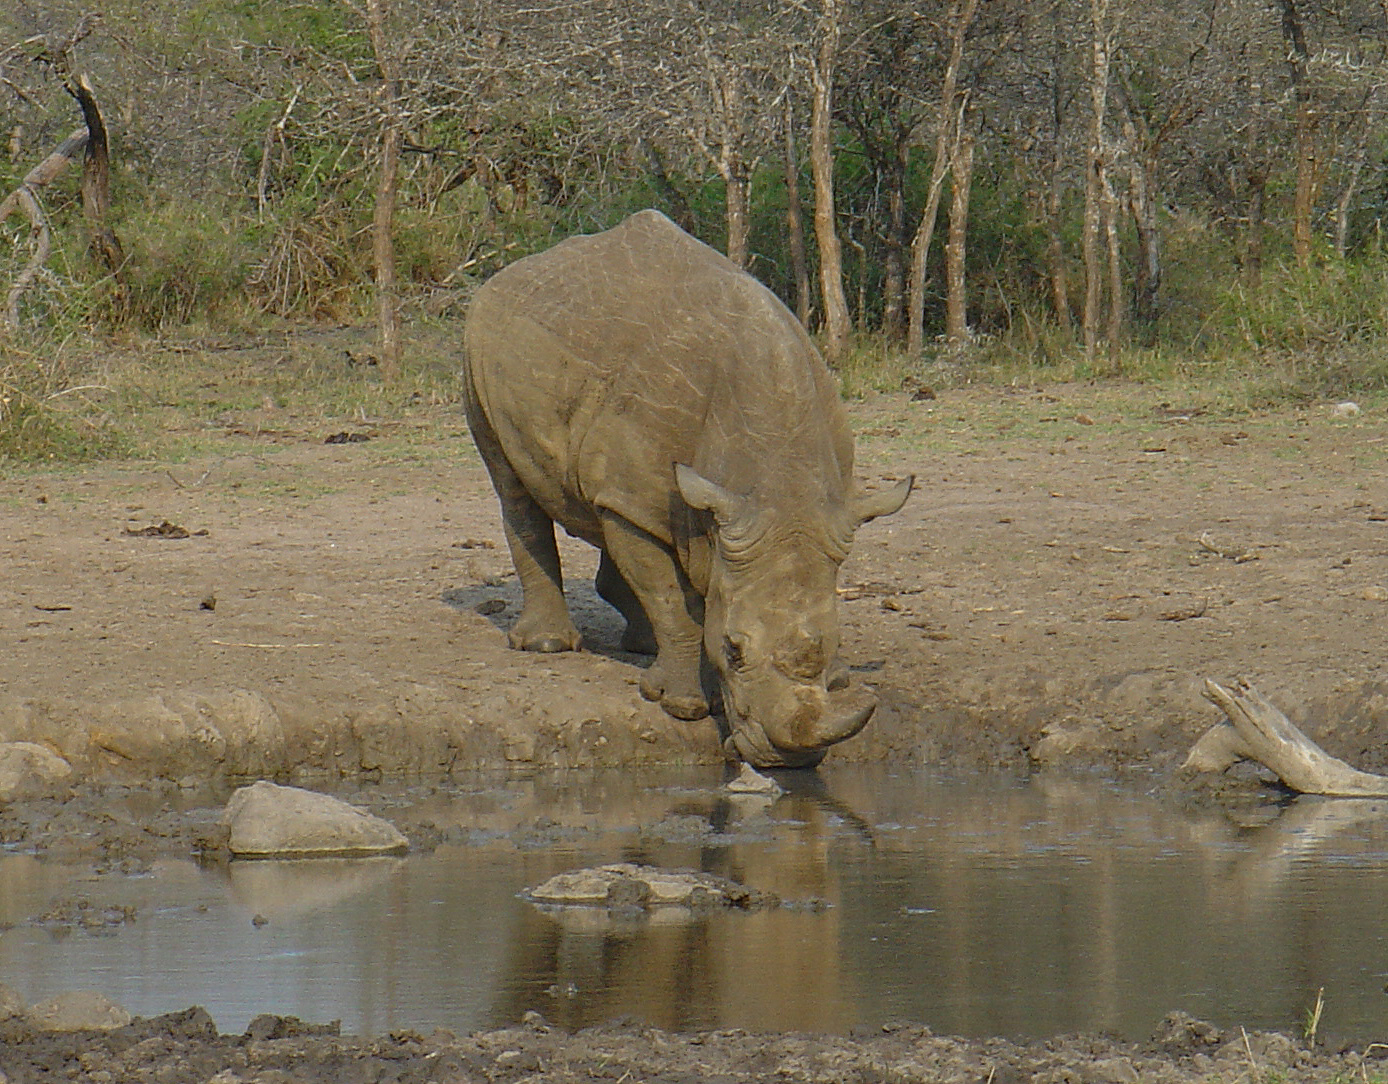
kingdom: Animalia
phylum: Chordata
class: Mammalia
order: Perissodactyla
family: Rhinocerotidae
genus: Ceratotherium
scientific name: Ceratotherium simum
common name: White rhinoceros
